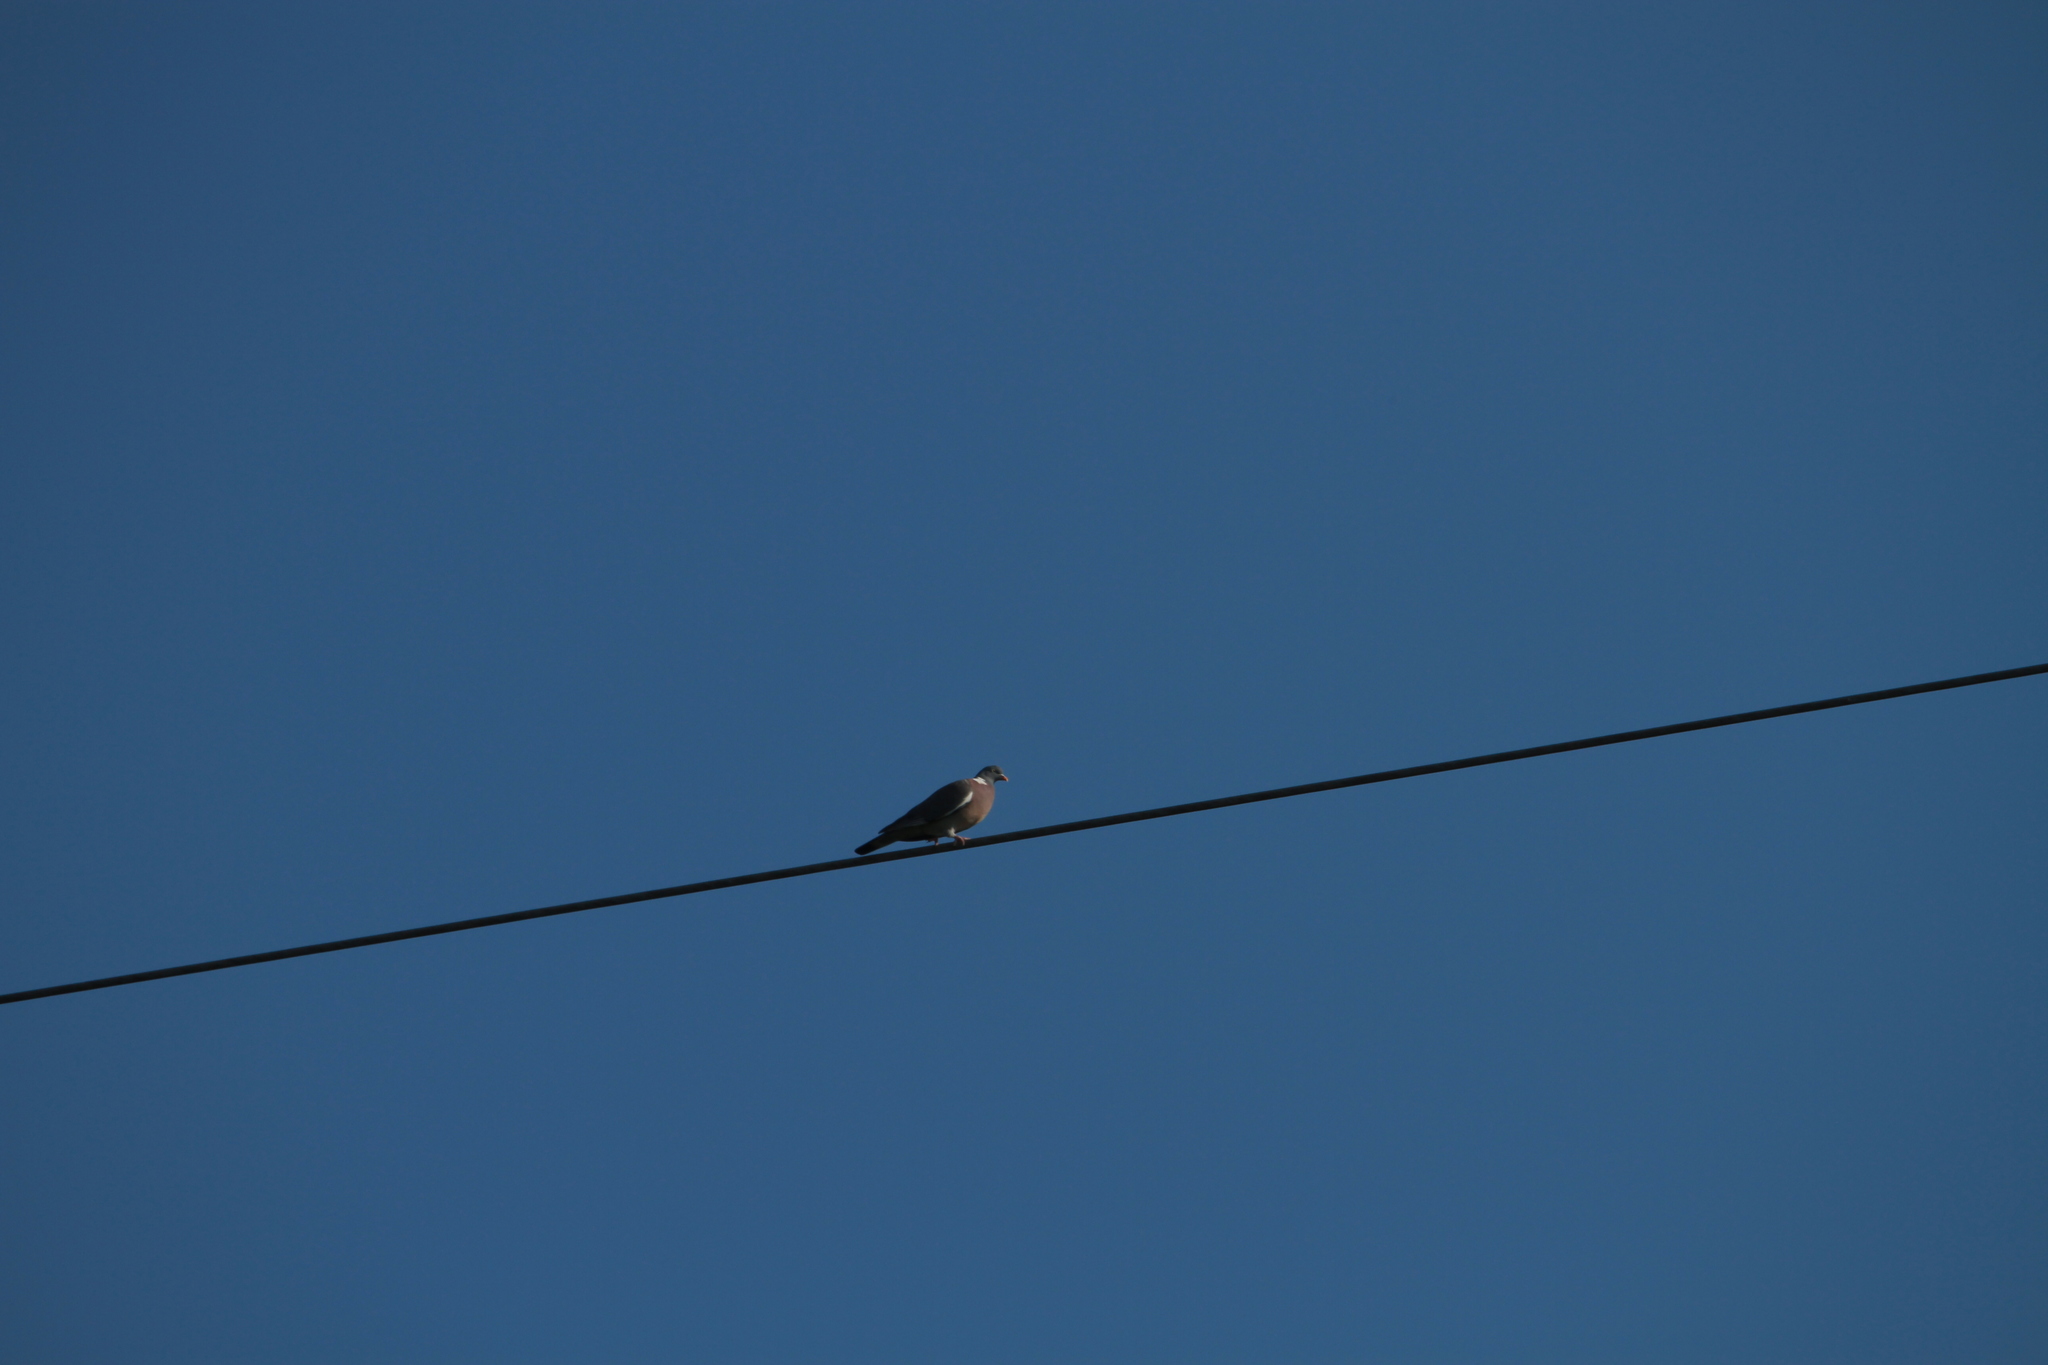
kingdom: Animalia
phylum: Chordata
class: Aves
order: Columbiformes
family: Columbidae
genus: Columba
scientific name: Columba palumbus
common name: Common wood pigeon
